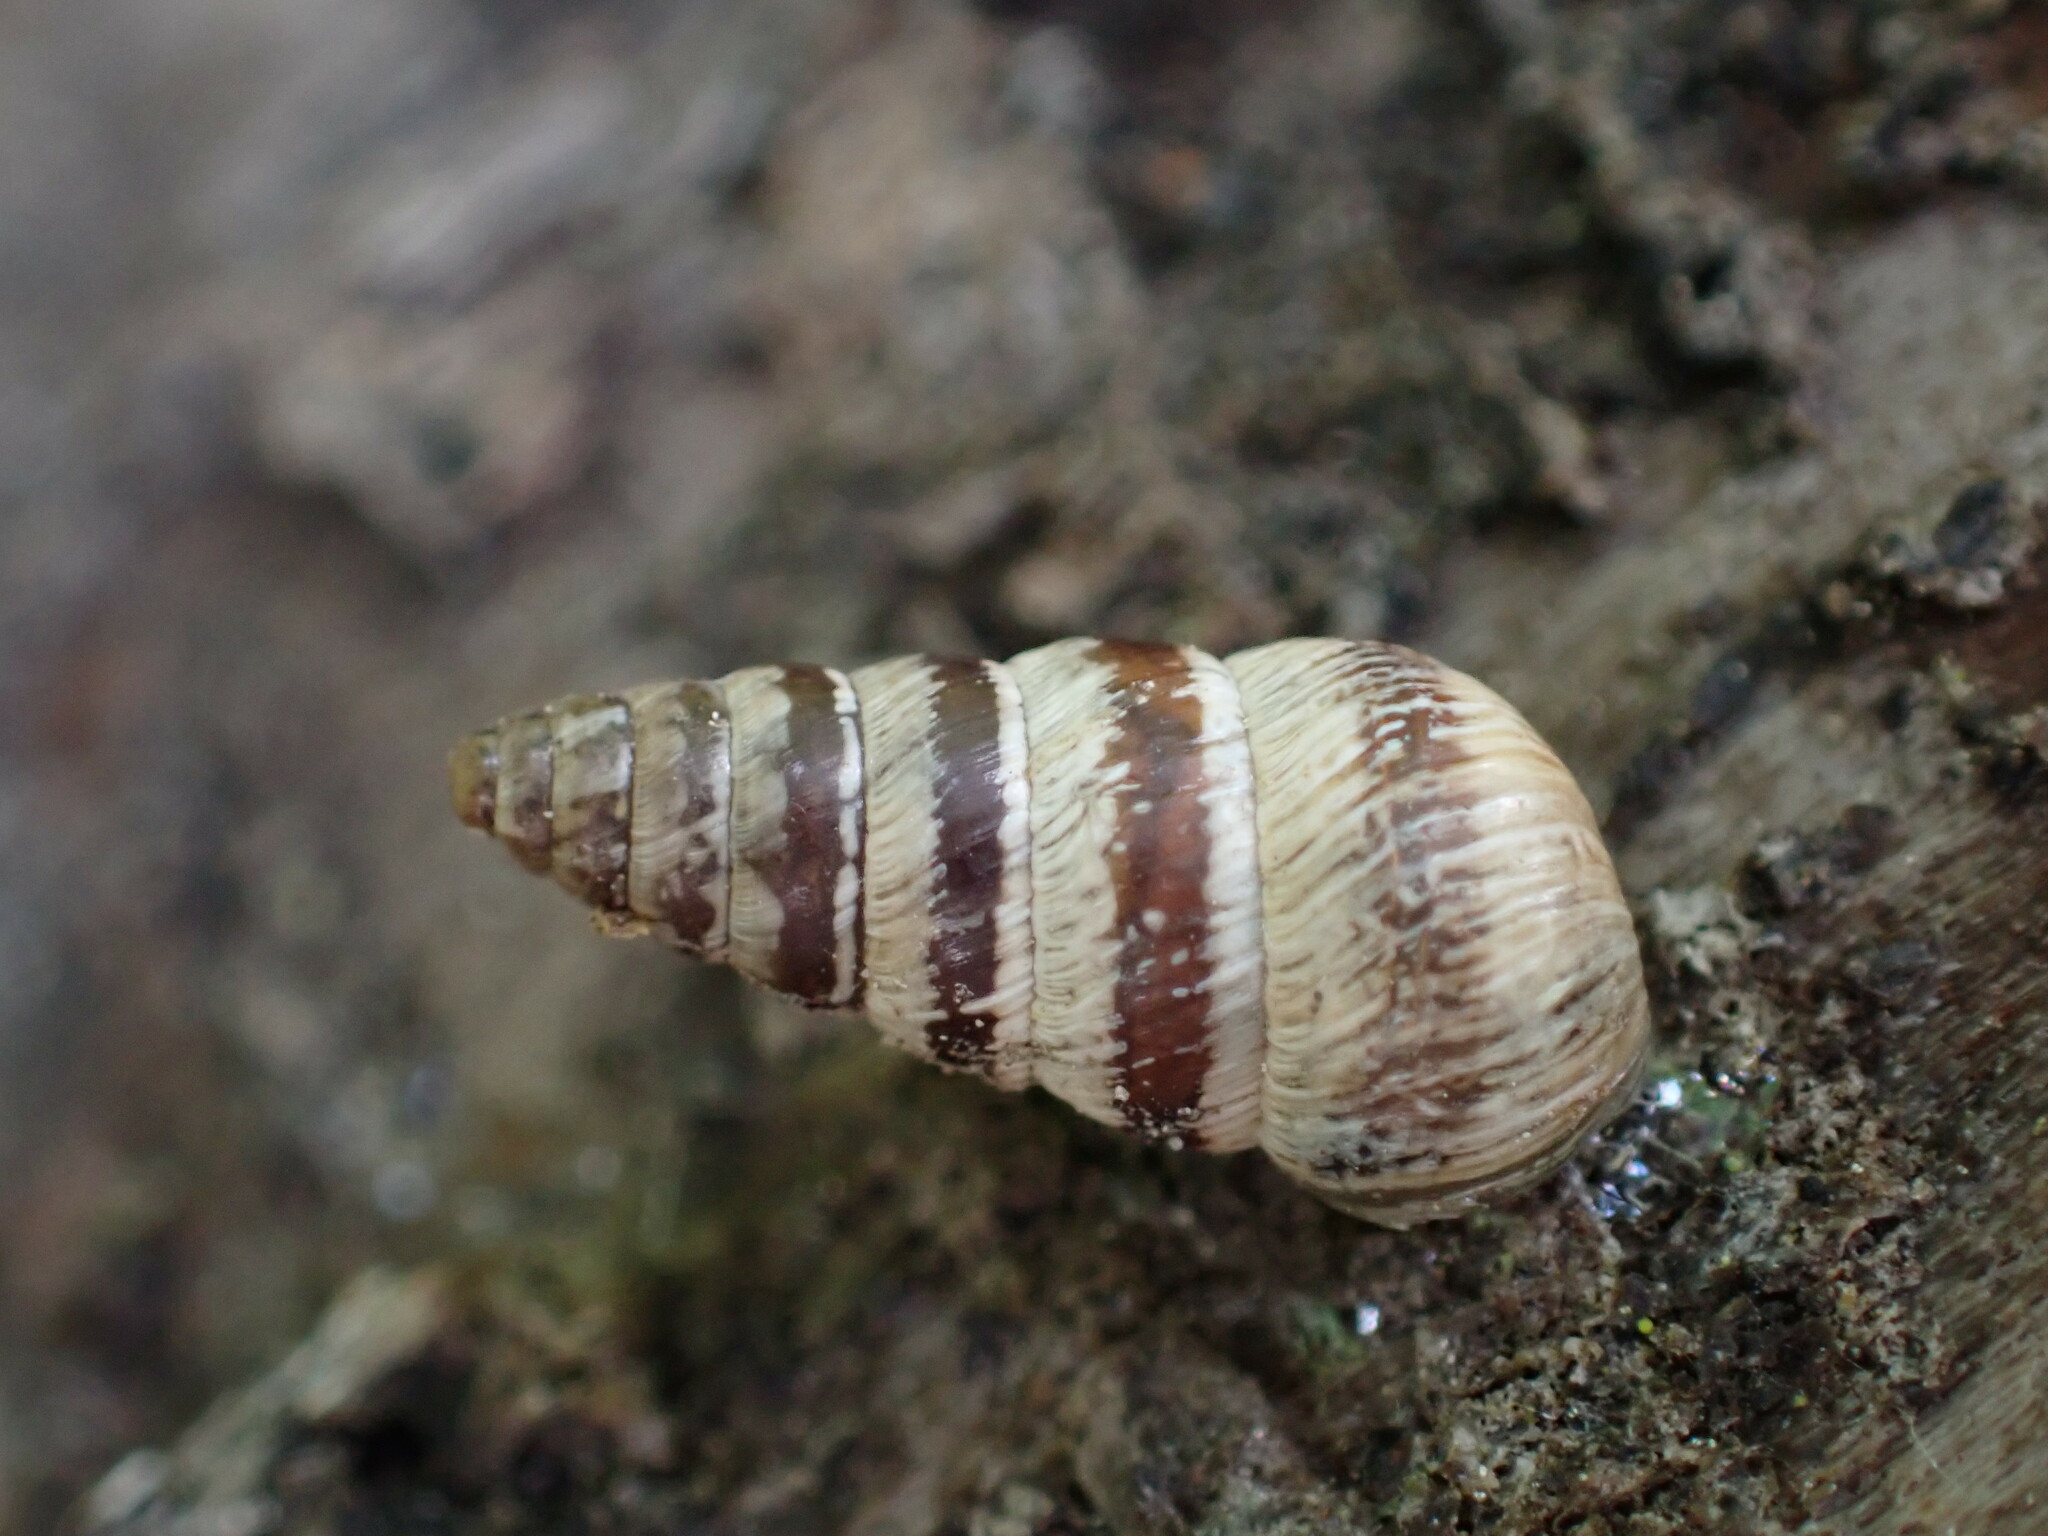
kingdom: Animalia
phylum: Mollusca
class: Gastropoda
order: Stylommatophora
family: Geomitridae
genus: Cochlicella
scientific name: Cochlicella acuta
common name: Pointed snail
